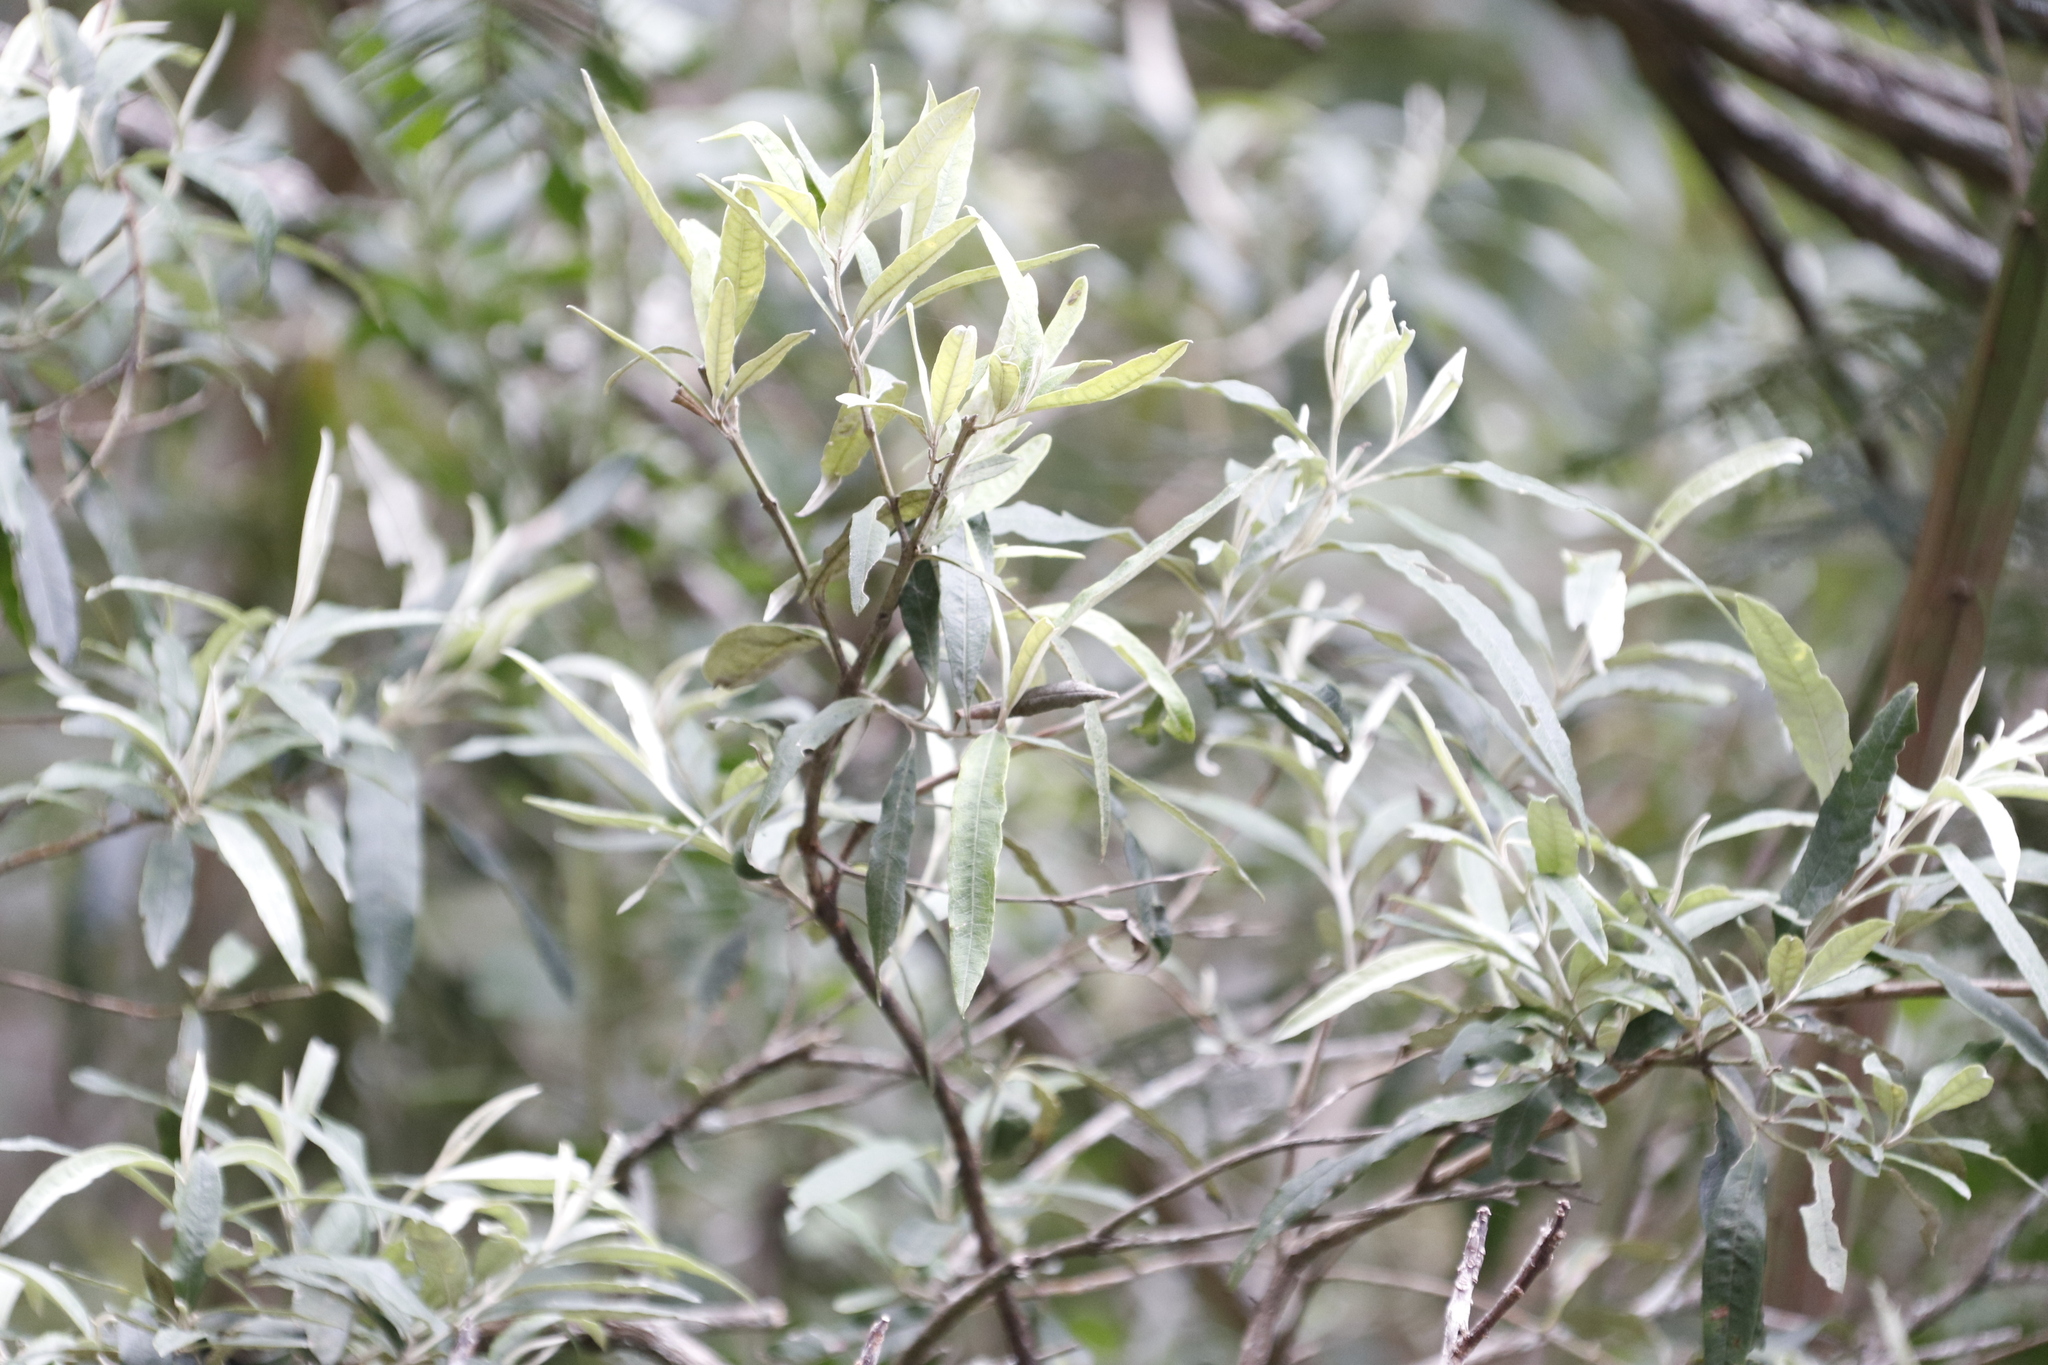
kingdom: Plantae
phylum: Tracheophyta
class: Magnoliopsida
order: Lamiales
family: Scrophulariaceae
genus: Buddleja
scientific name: Buddleja saligna
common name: False olive
